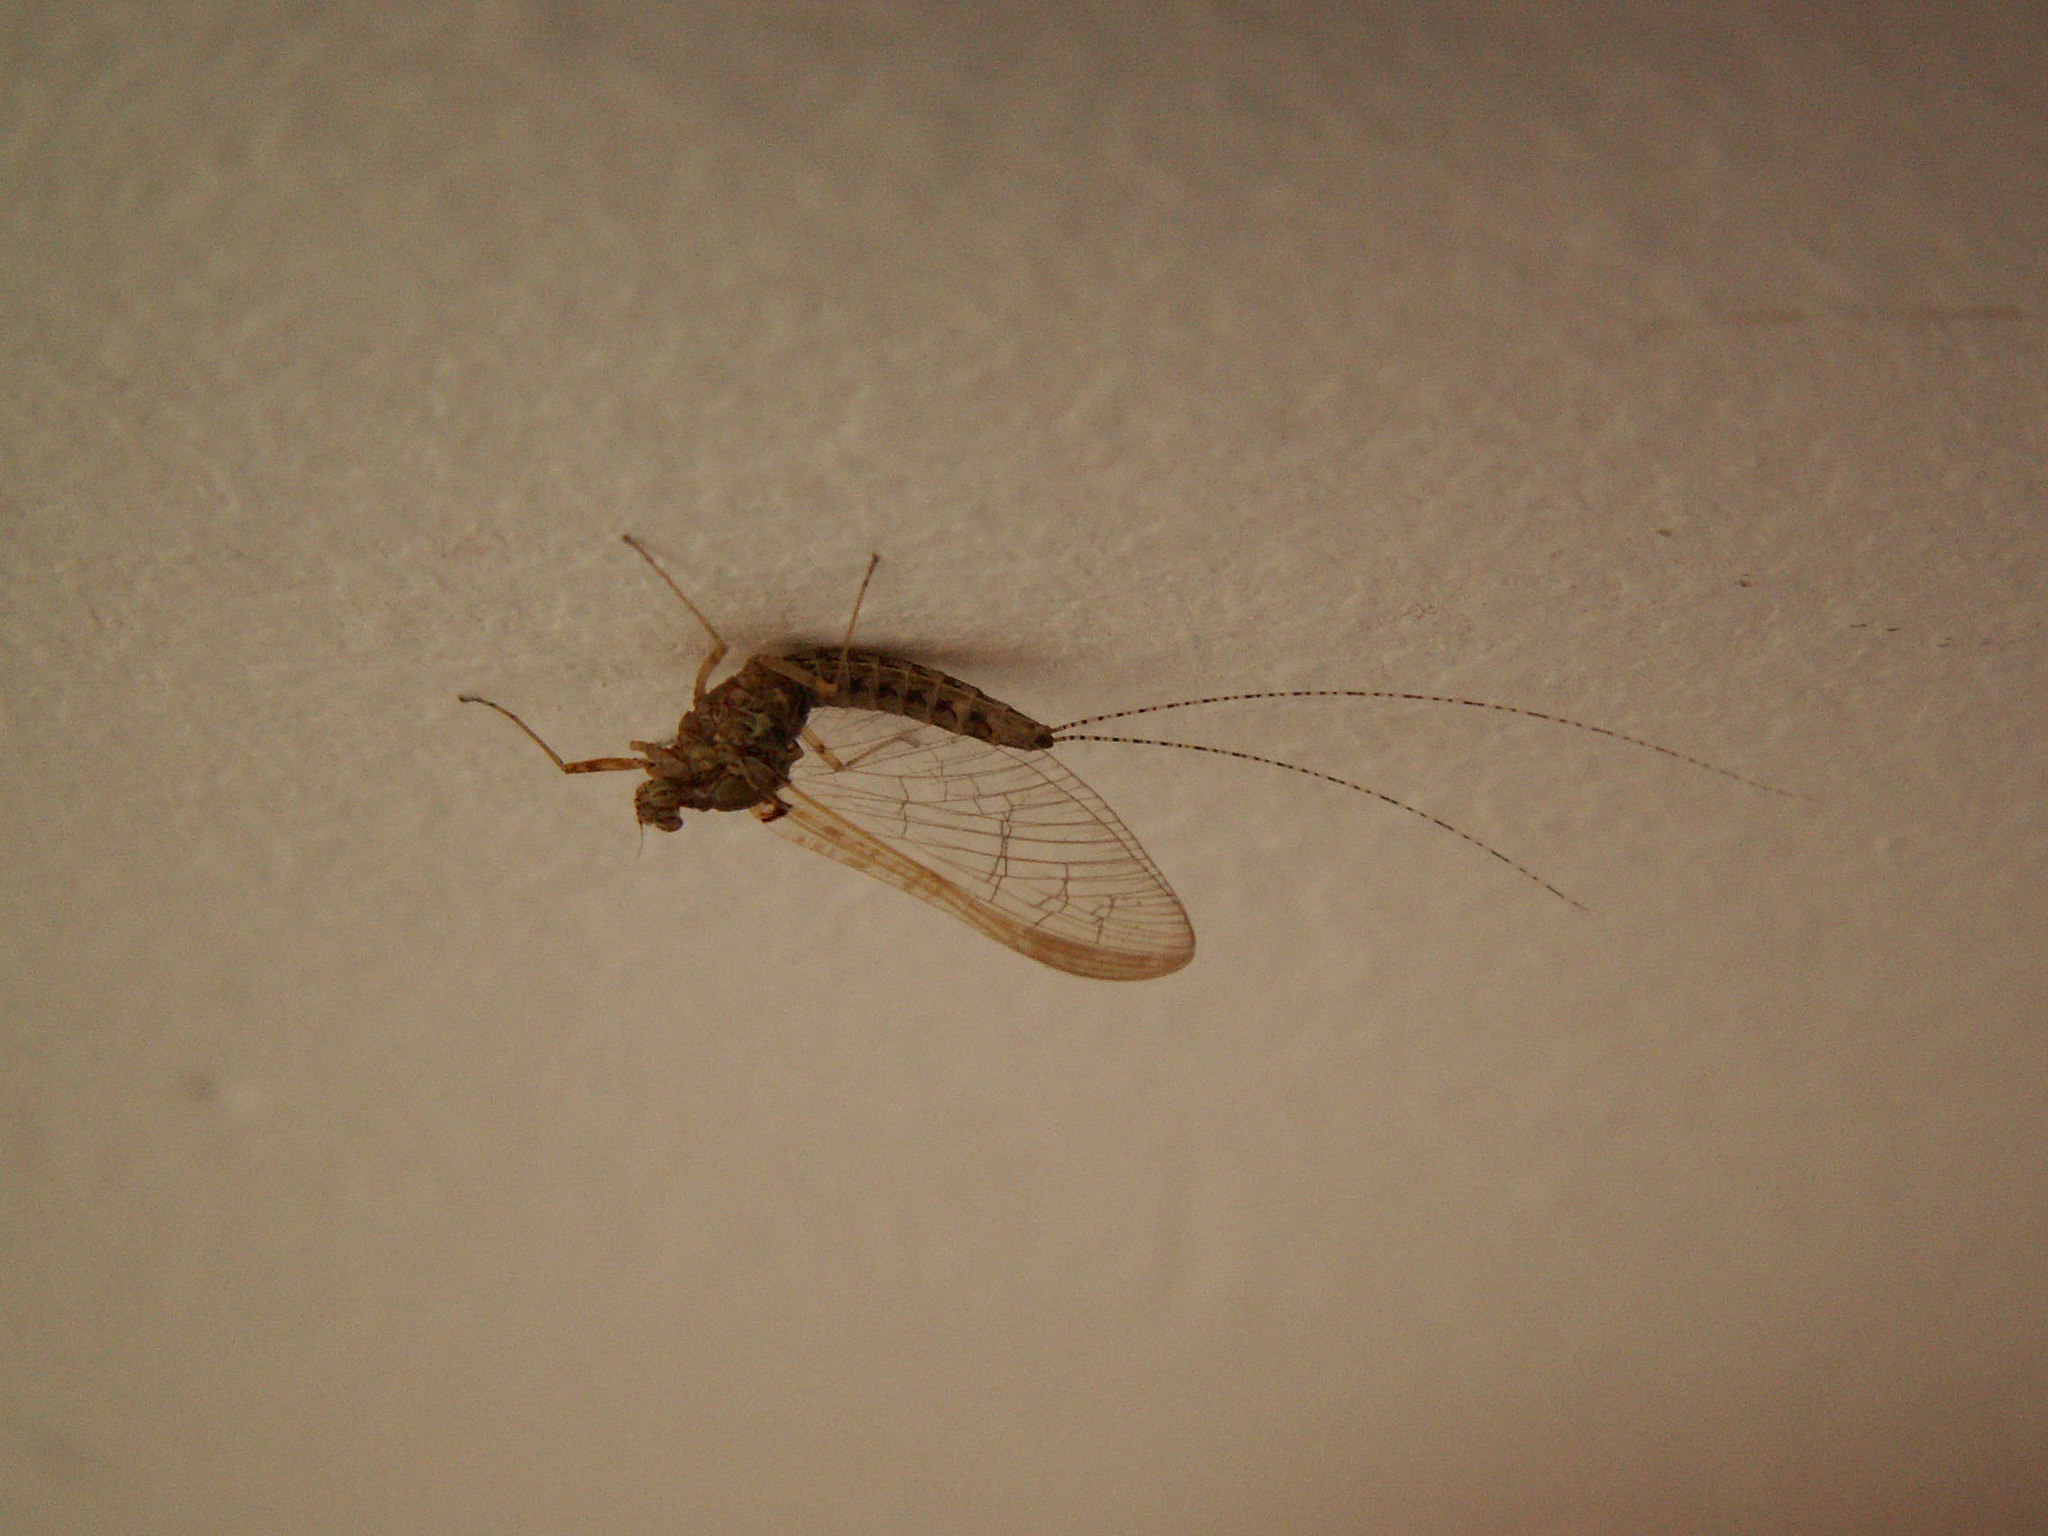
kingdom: Animalia
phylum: Arthropoda
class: Insecta
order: Ephemeroptera
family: Baetidae
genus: Cloeon
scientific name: Cloeon dipterum
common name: Pond olive
